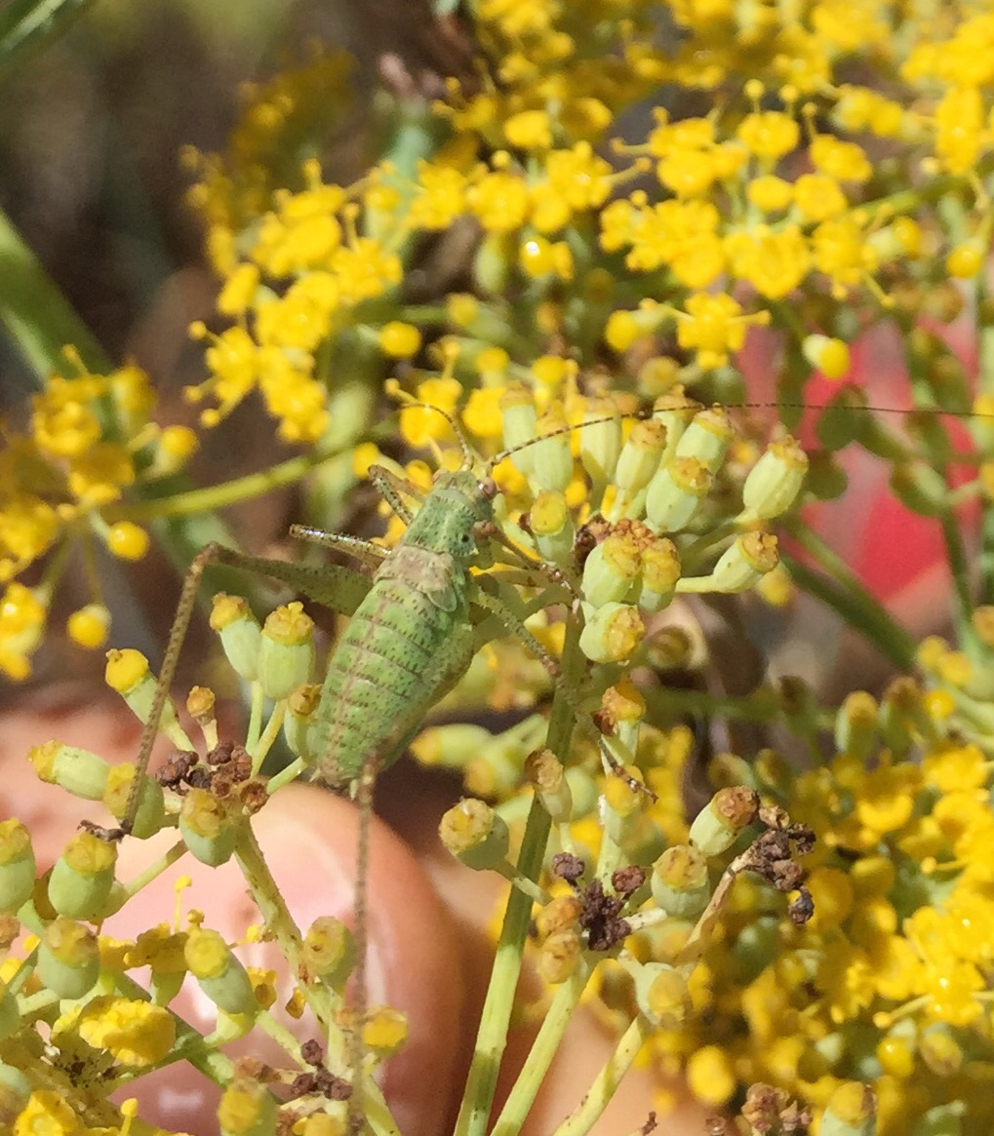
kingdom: Animalia
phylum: Arthropoda
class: Insecta
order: Orthoptera
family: Tettigoniidae
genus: Phaneroptera
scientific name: Phaneroptera nana
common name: Southern sickle bush-cricket
